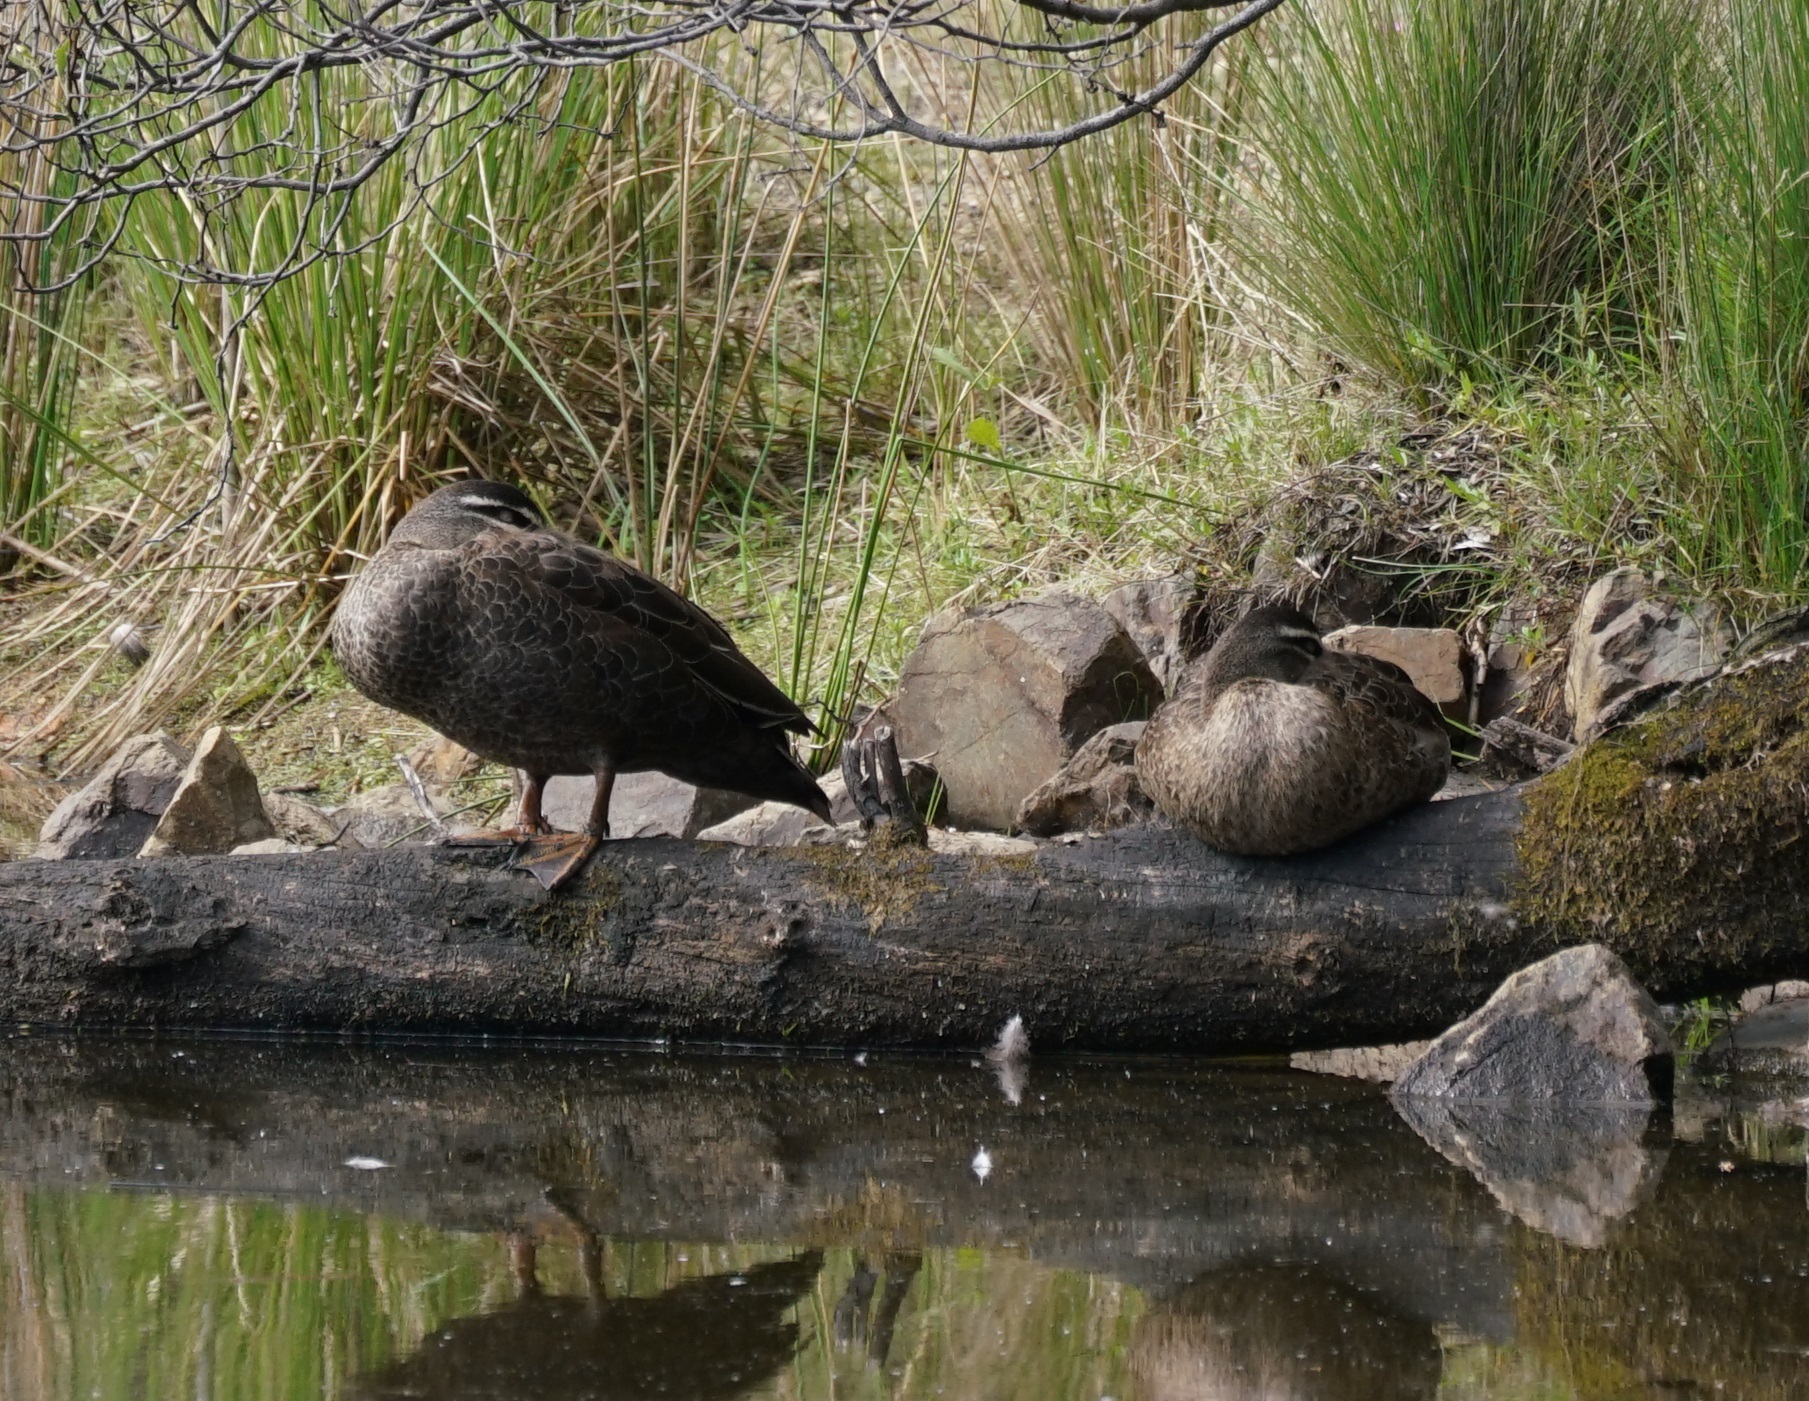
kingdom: Animalia
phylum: Chordata
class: Aves
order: Anseriformes
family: Anatidae
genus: Anas
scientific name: Anas superciliosa
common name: Pacific black duck
